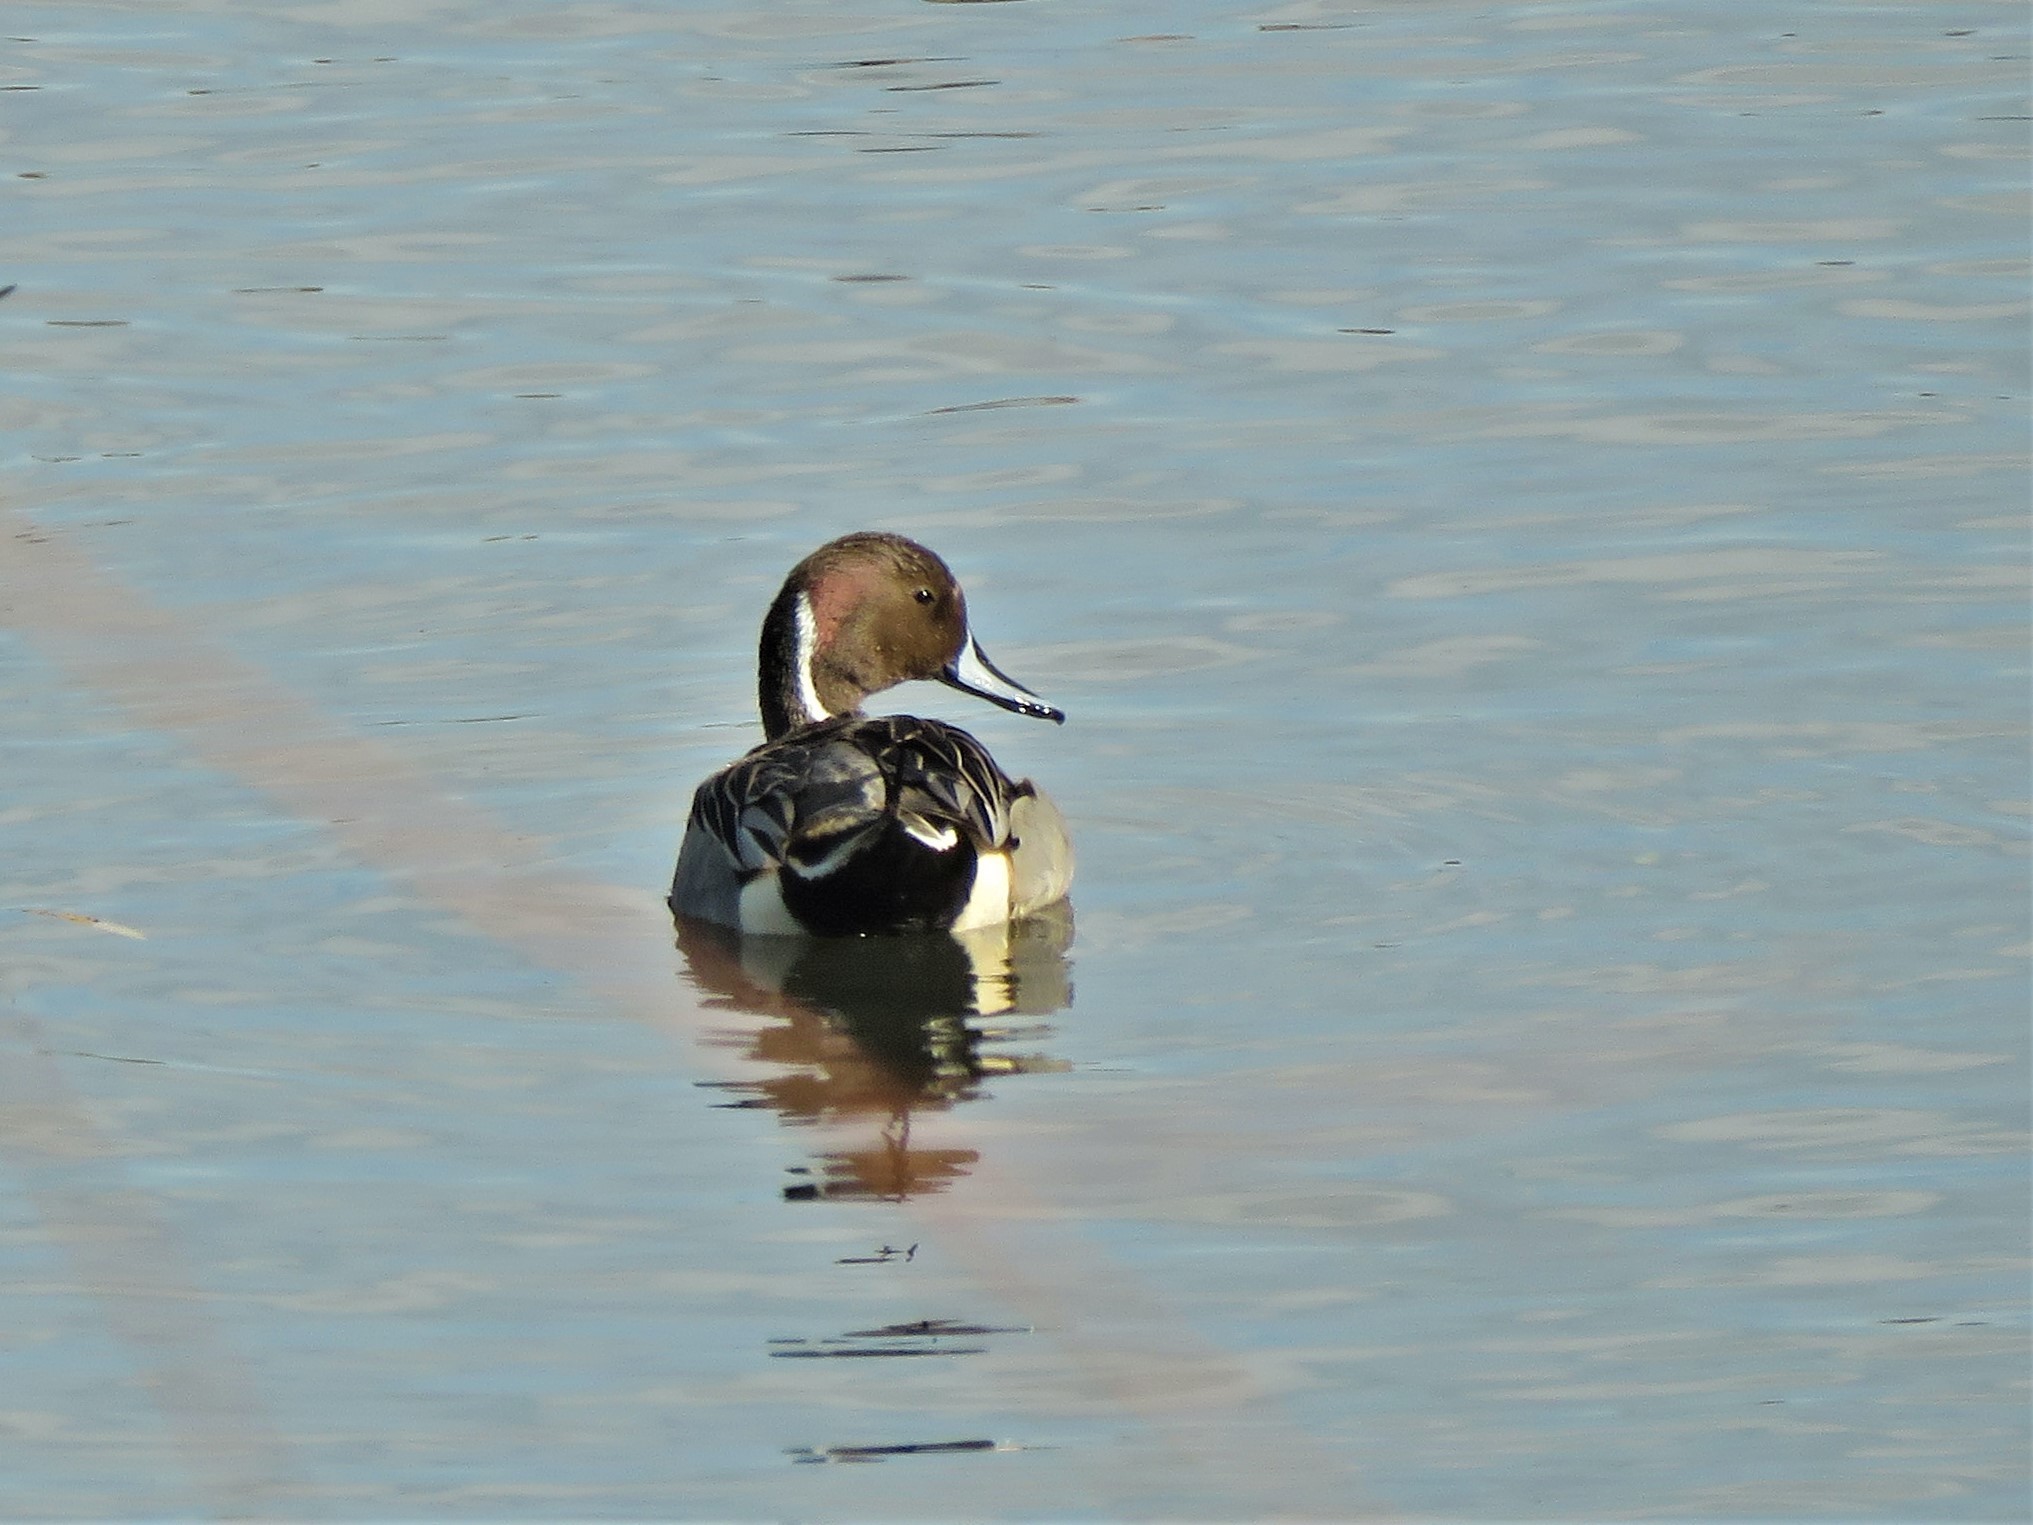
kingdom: Animalia
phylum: Chordata
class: Aves
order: Anseriformes
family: Anatidae
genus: Anas
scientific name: Anas acuta
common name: Northern pintail
